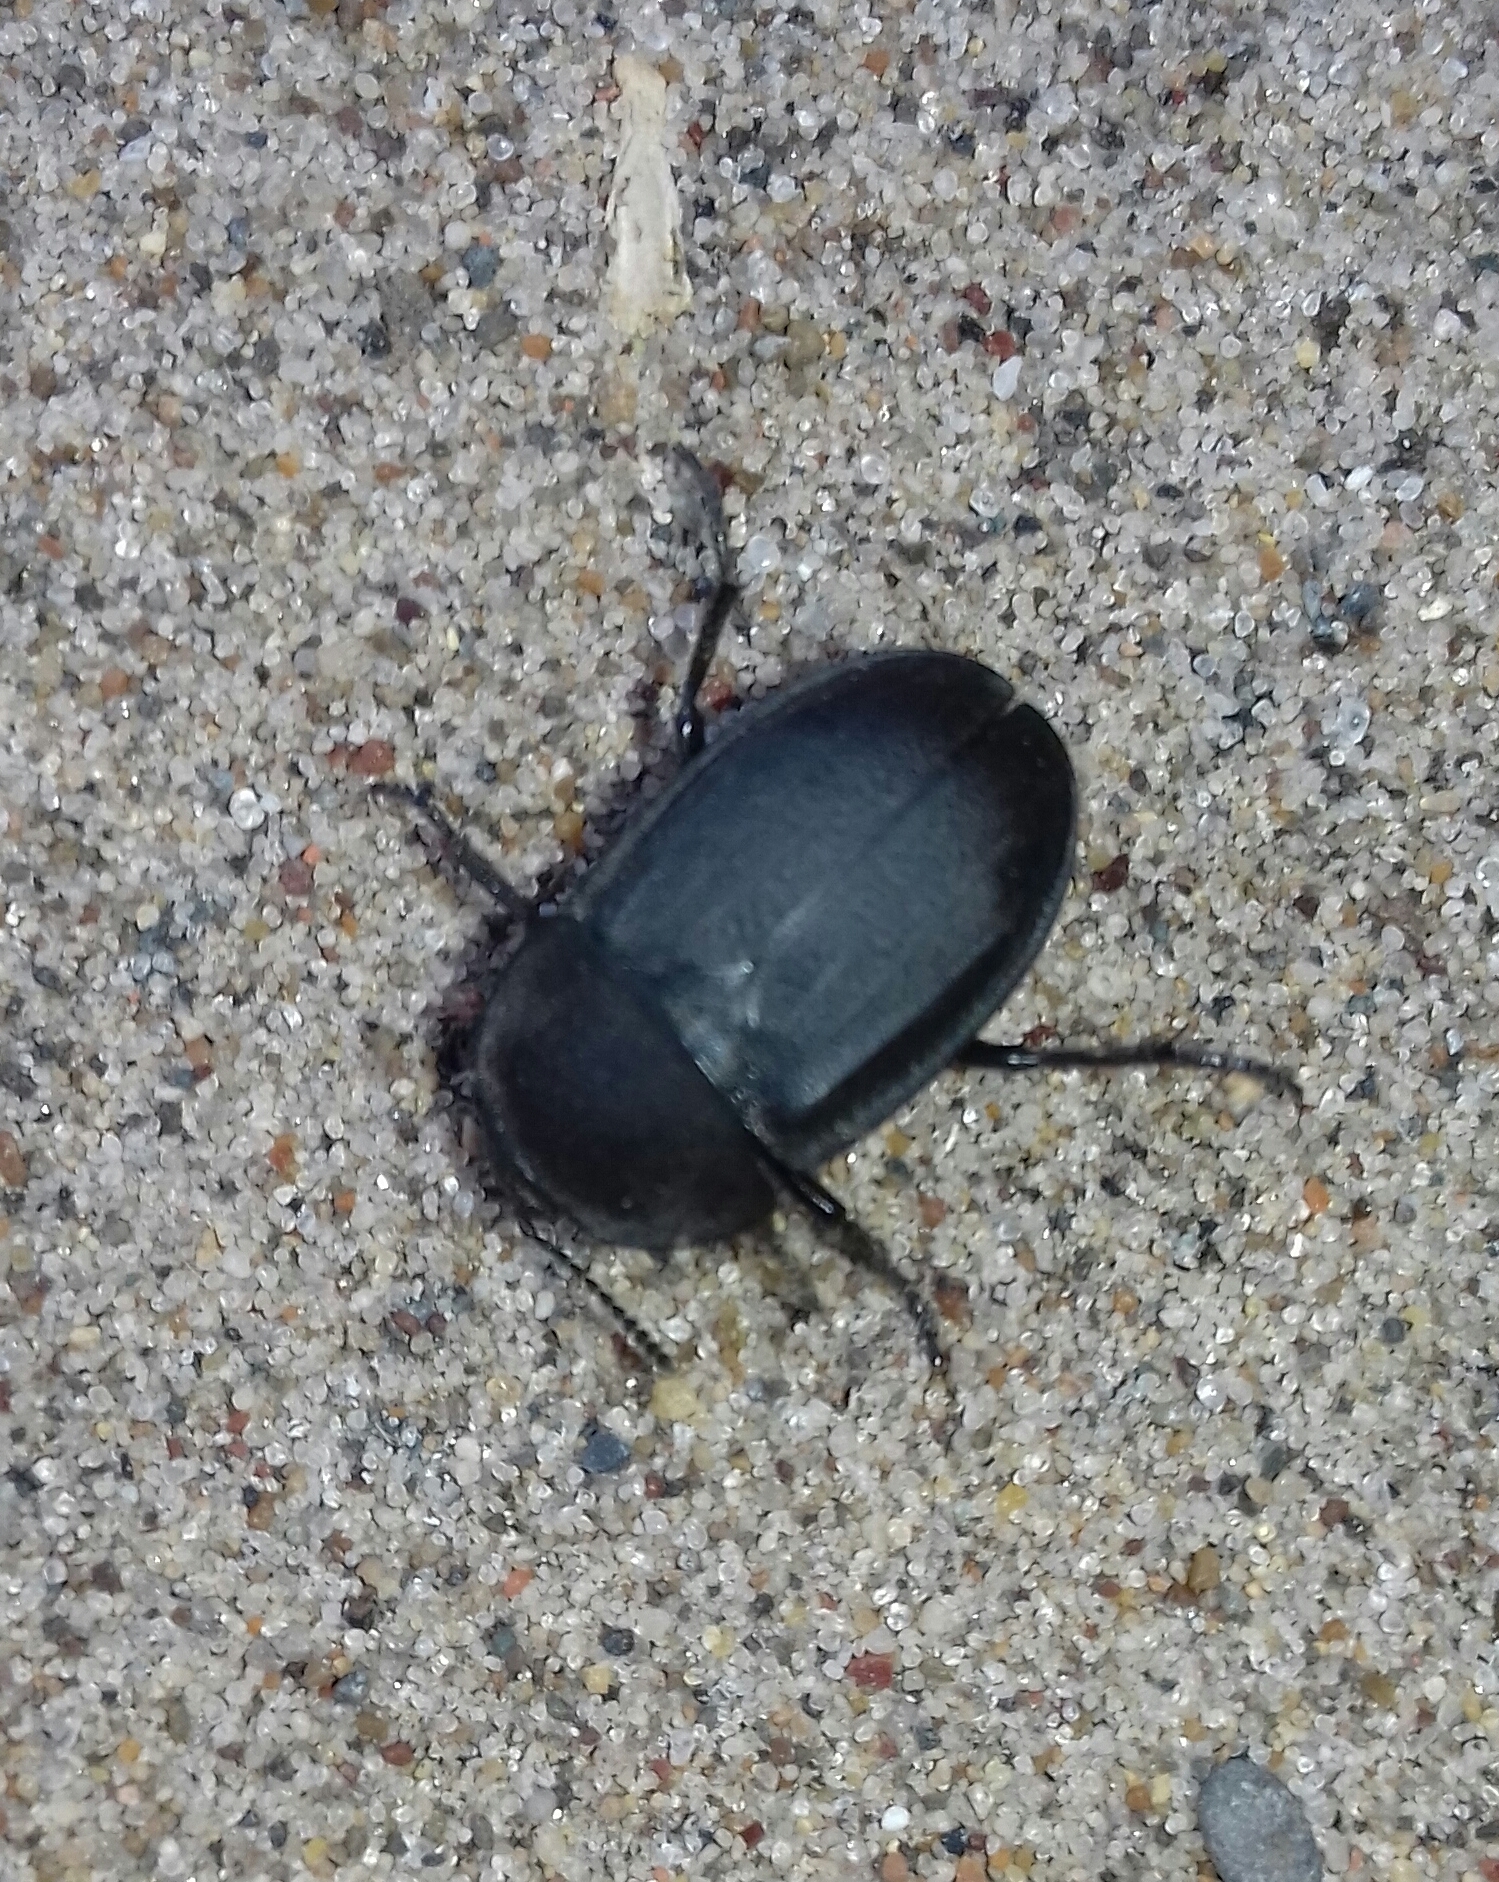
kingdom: Animalia
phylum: Arthropoda
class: Insecta
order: Coleoptera
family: Staphylinidae
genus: Silpha
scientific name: Silpha obscura
